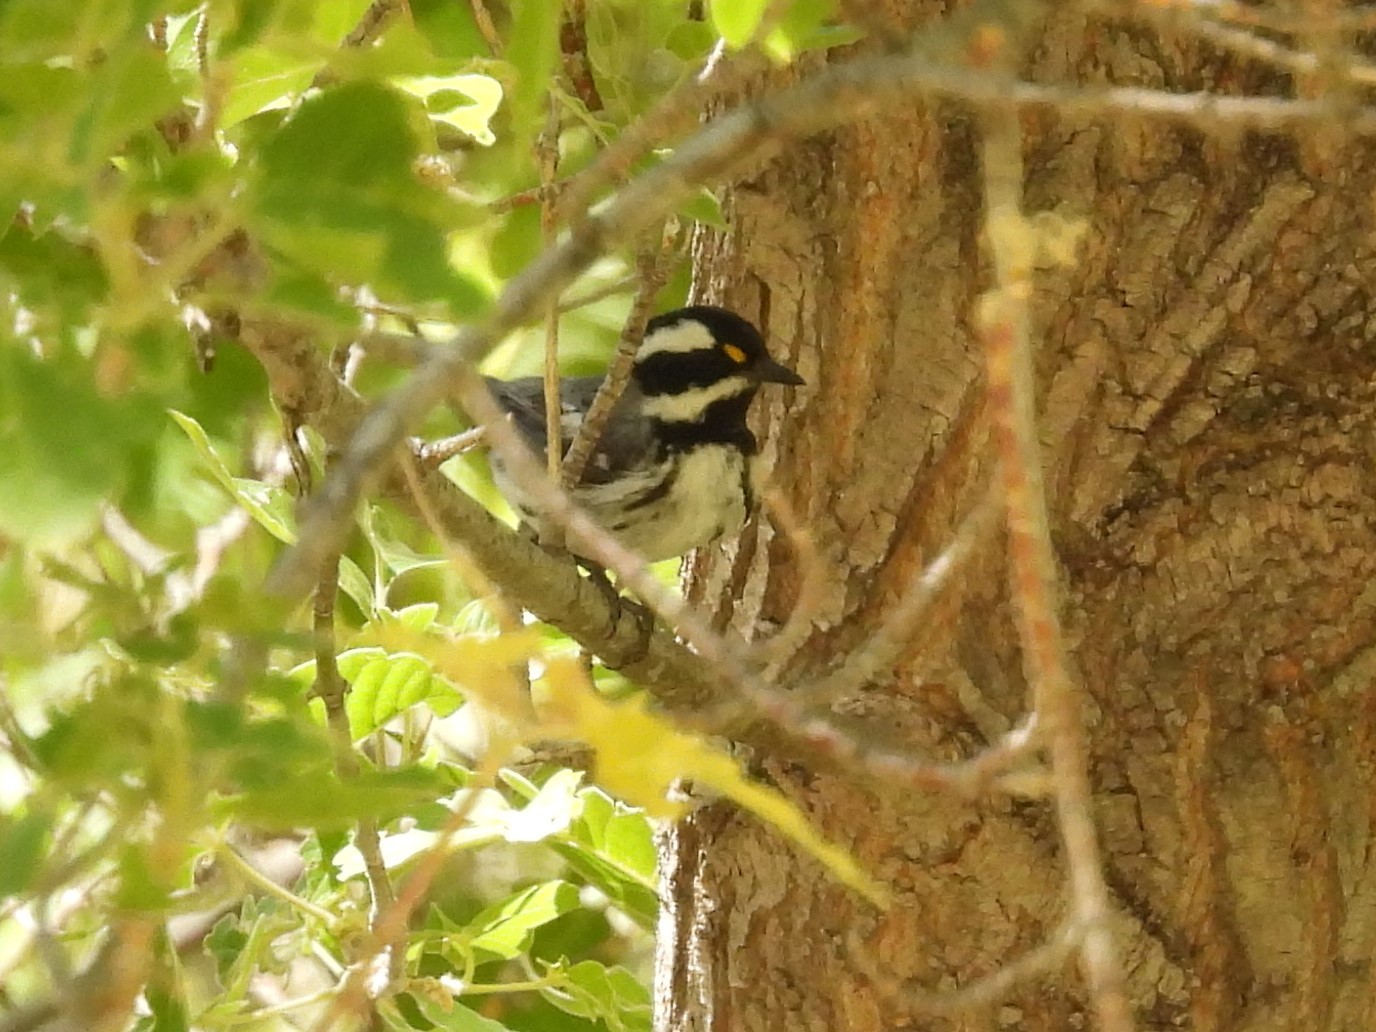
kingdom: Animalia
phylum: Chordata
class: Aves
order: Passeriformes
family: Parulidae
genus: Setophaga
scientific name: Setophaga nigrescens
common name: Black-throated gray warbler
